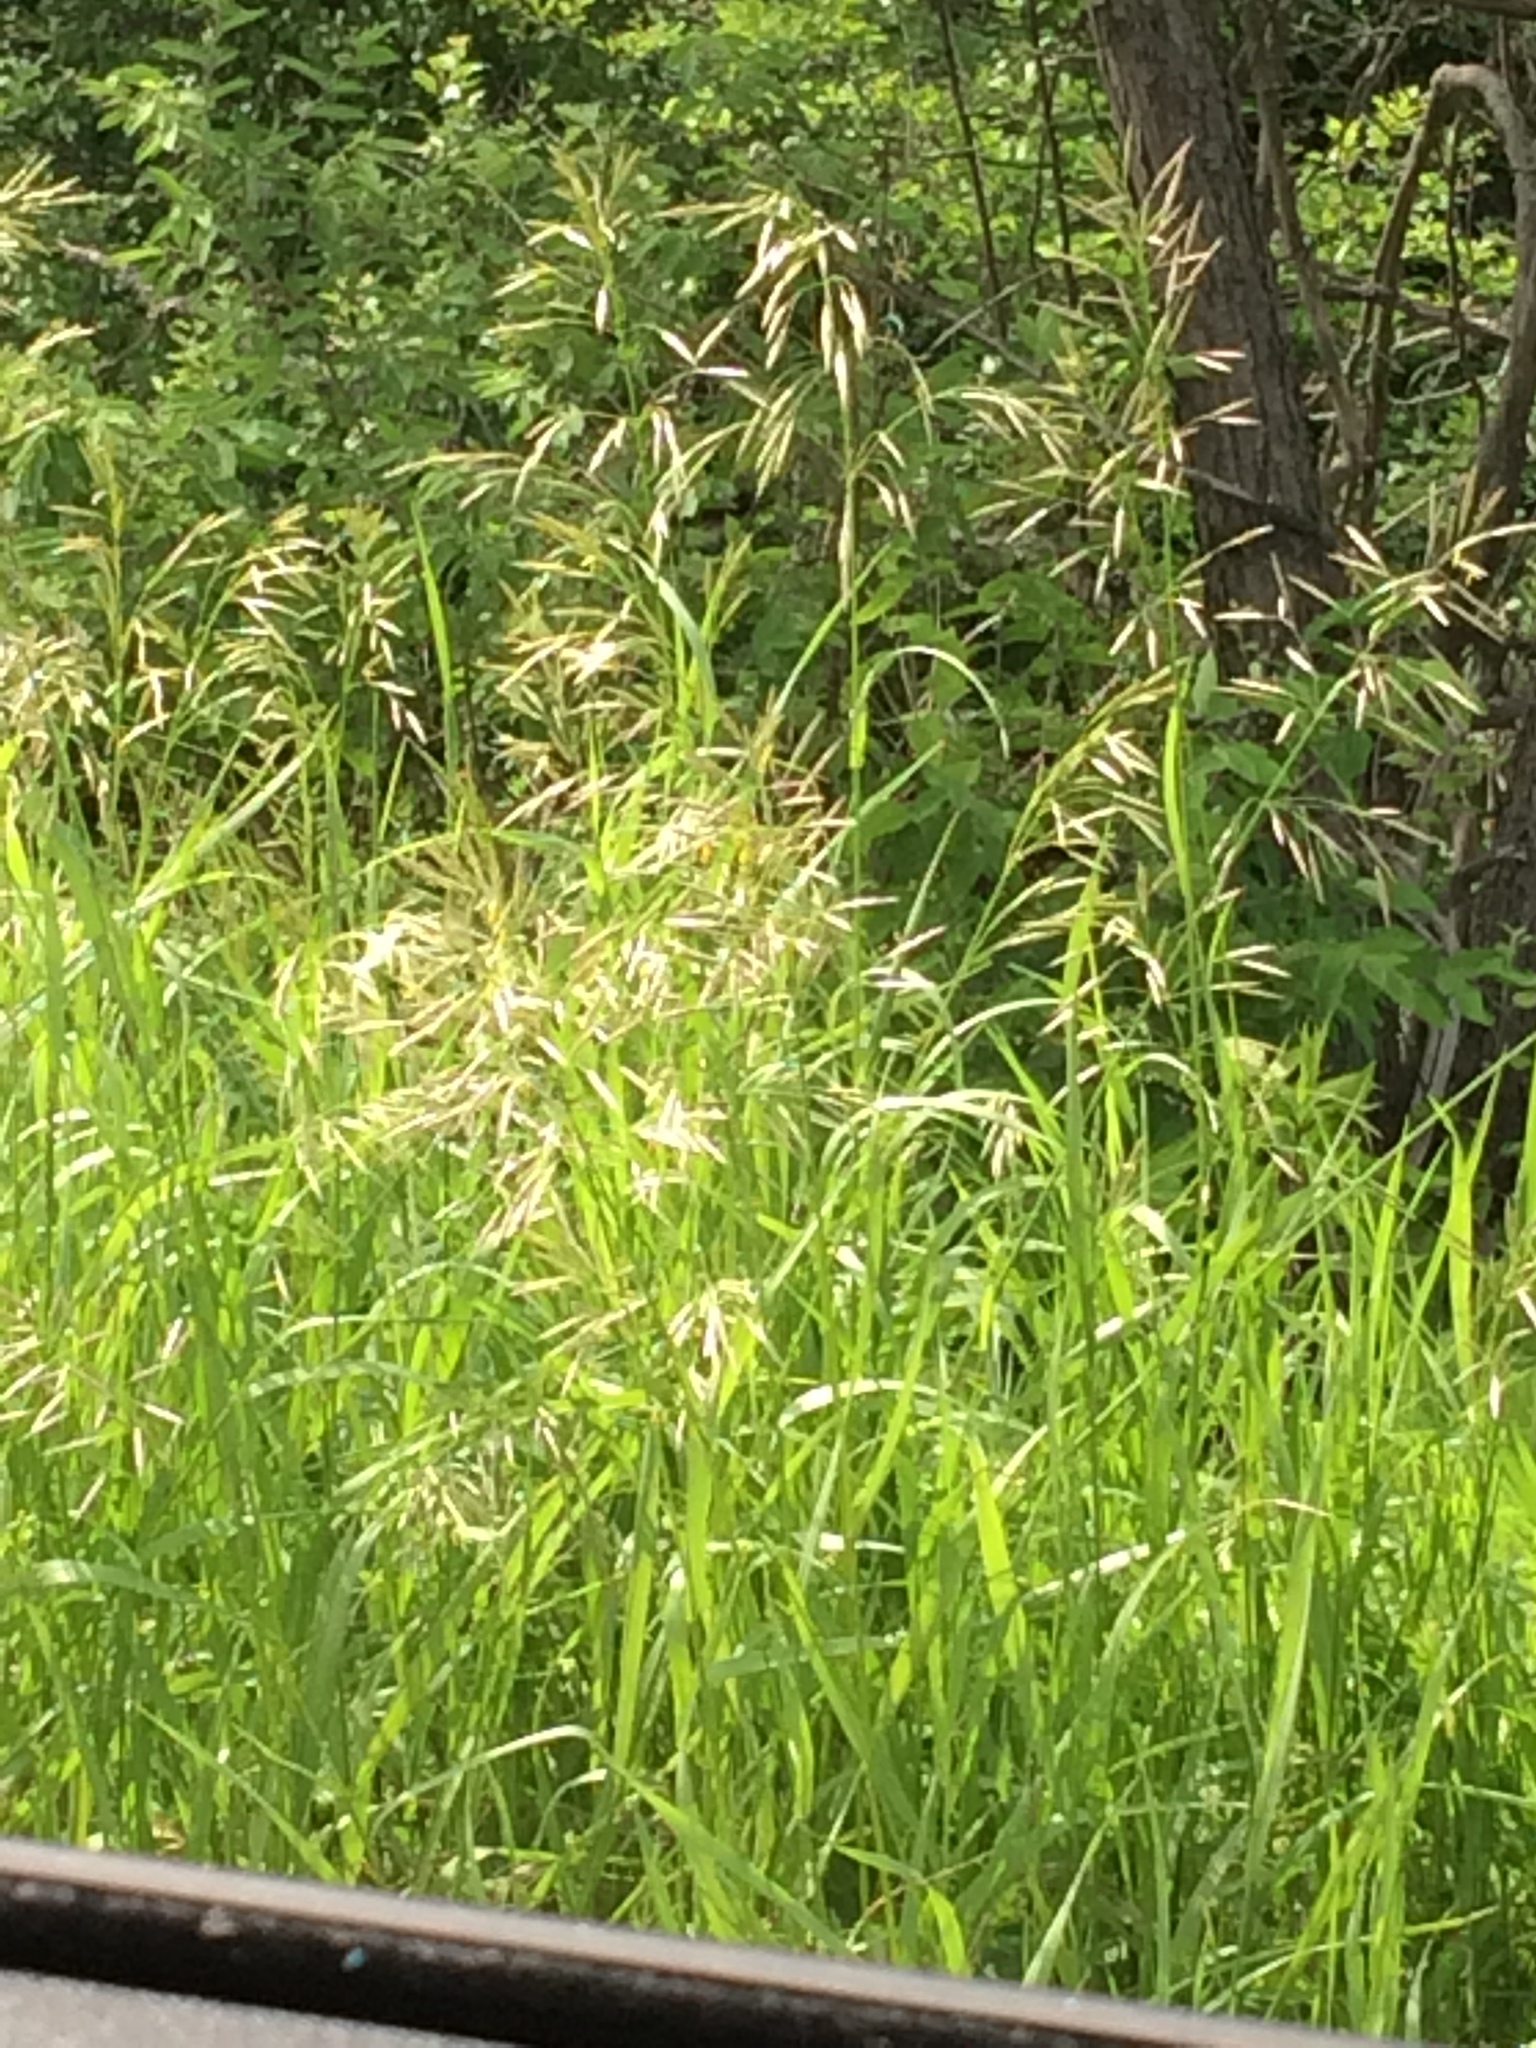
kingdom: Plantae
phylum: Tracheophyta
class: Liliopsida
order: Poales
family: Poaceae
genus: Bromus
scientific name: Bromus inermis
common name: Smooth brome
